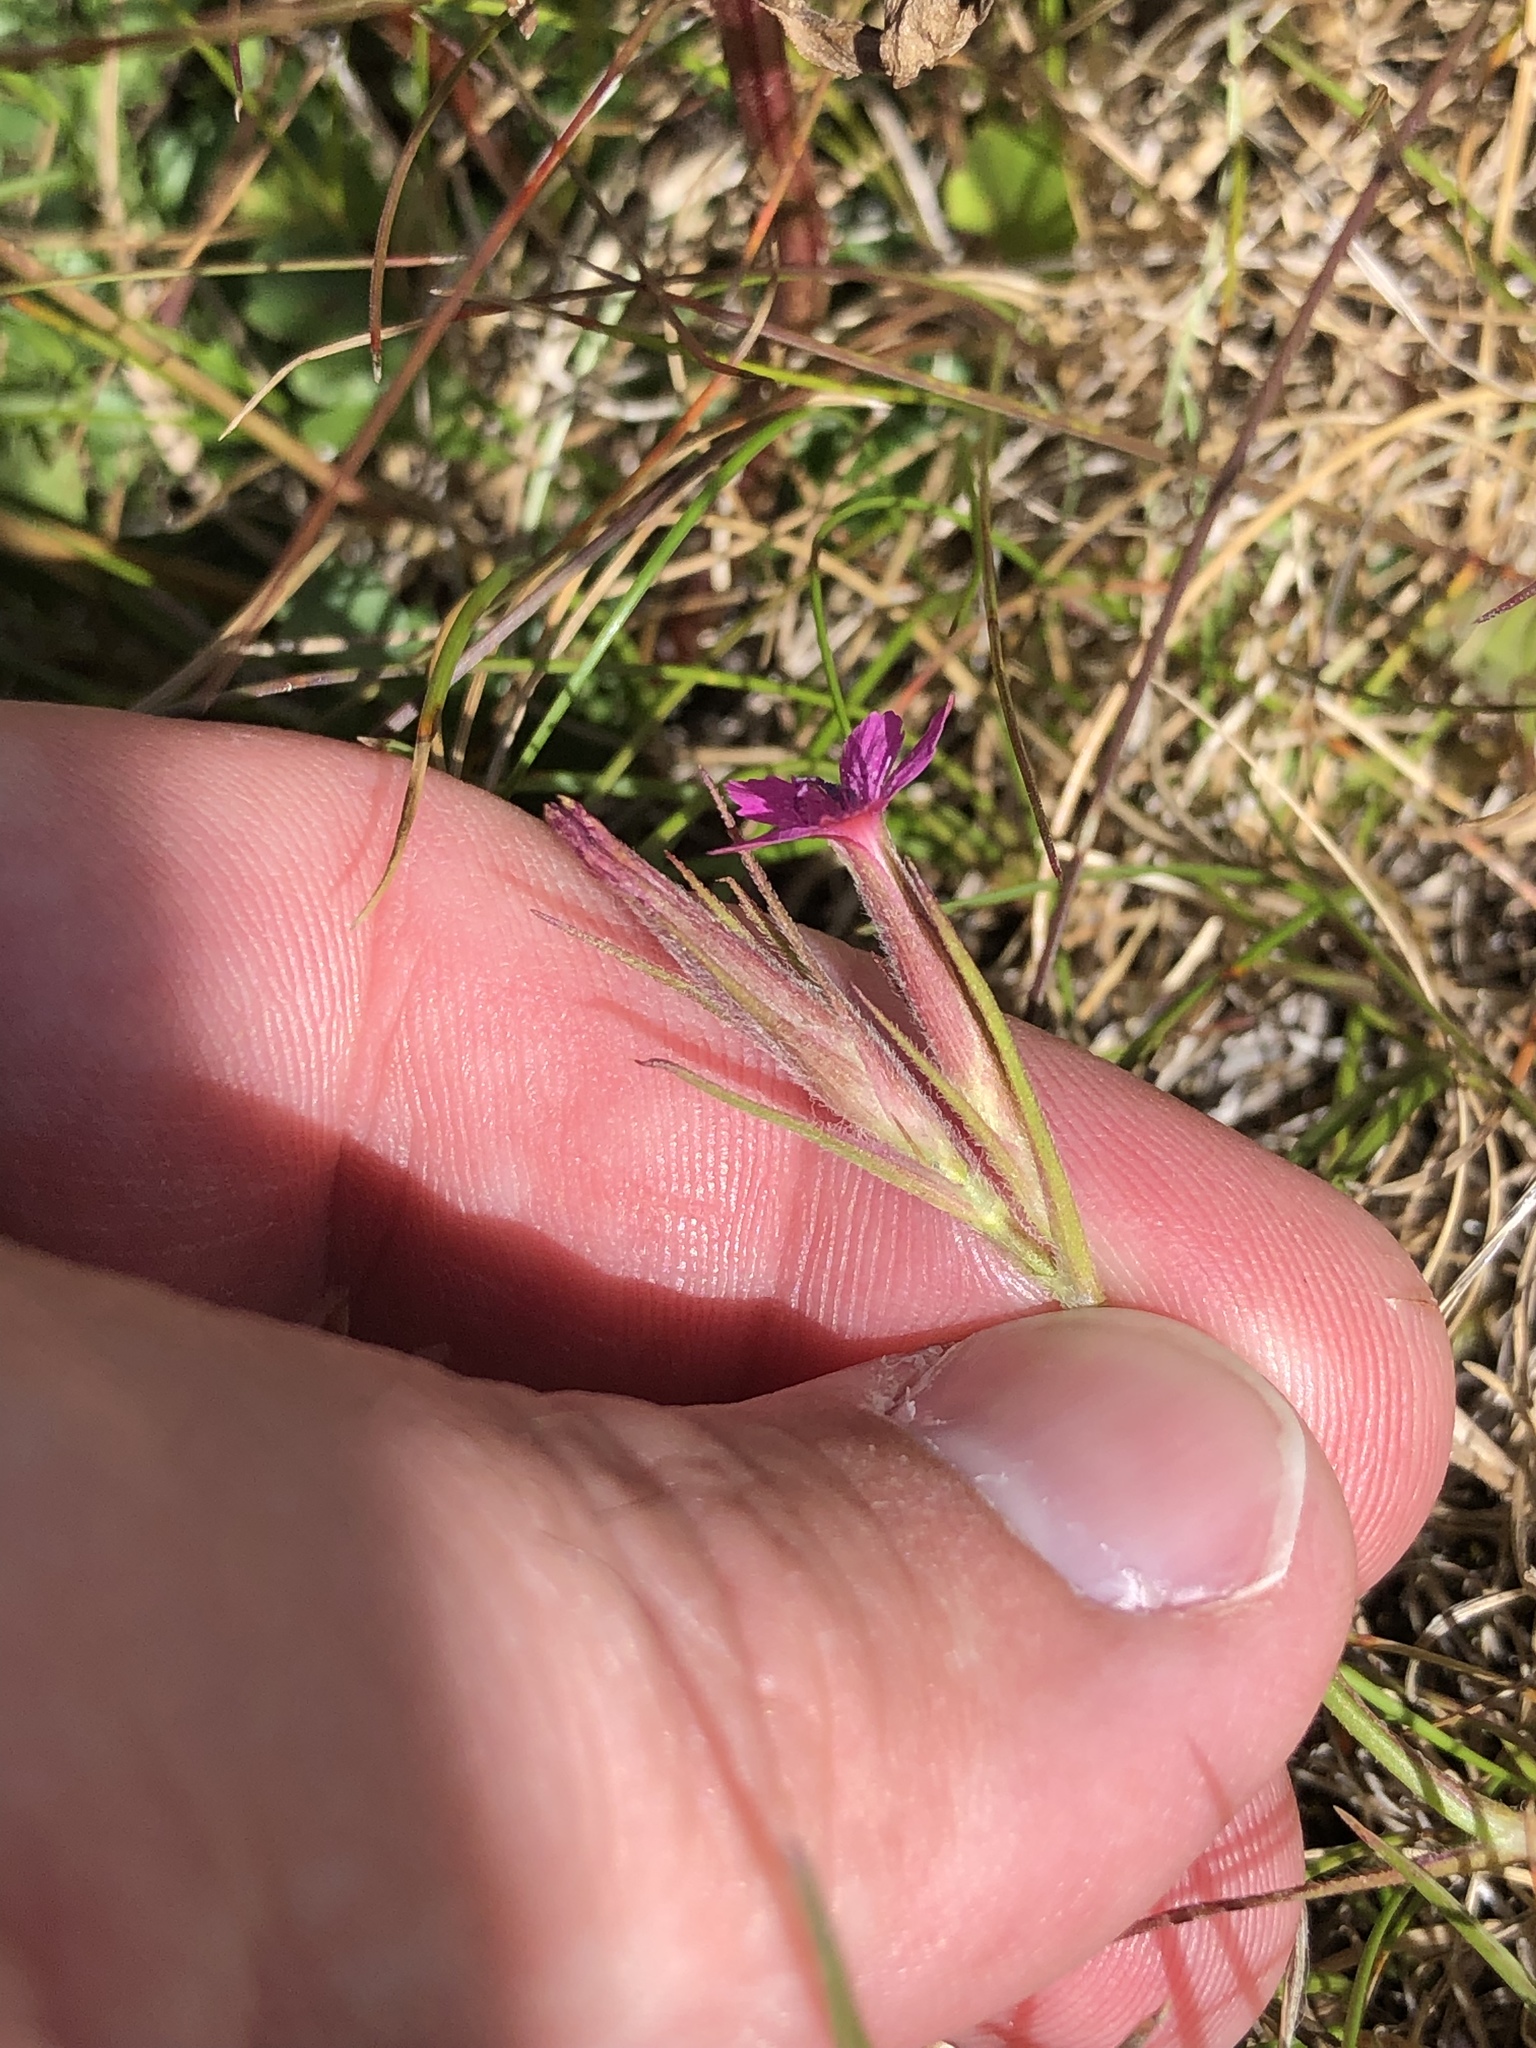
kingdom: Plantae
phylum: Tracheophyta
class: Magnoliopsida
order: Caryophyllales
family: Caryophyllaceae
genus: Dianthus
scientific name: Dianthus armeria
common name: Deptford pink
